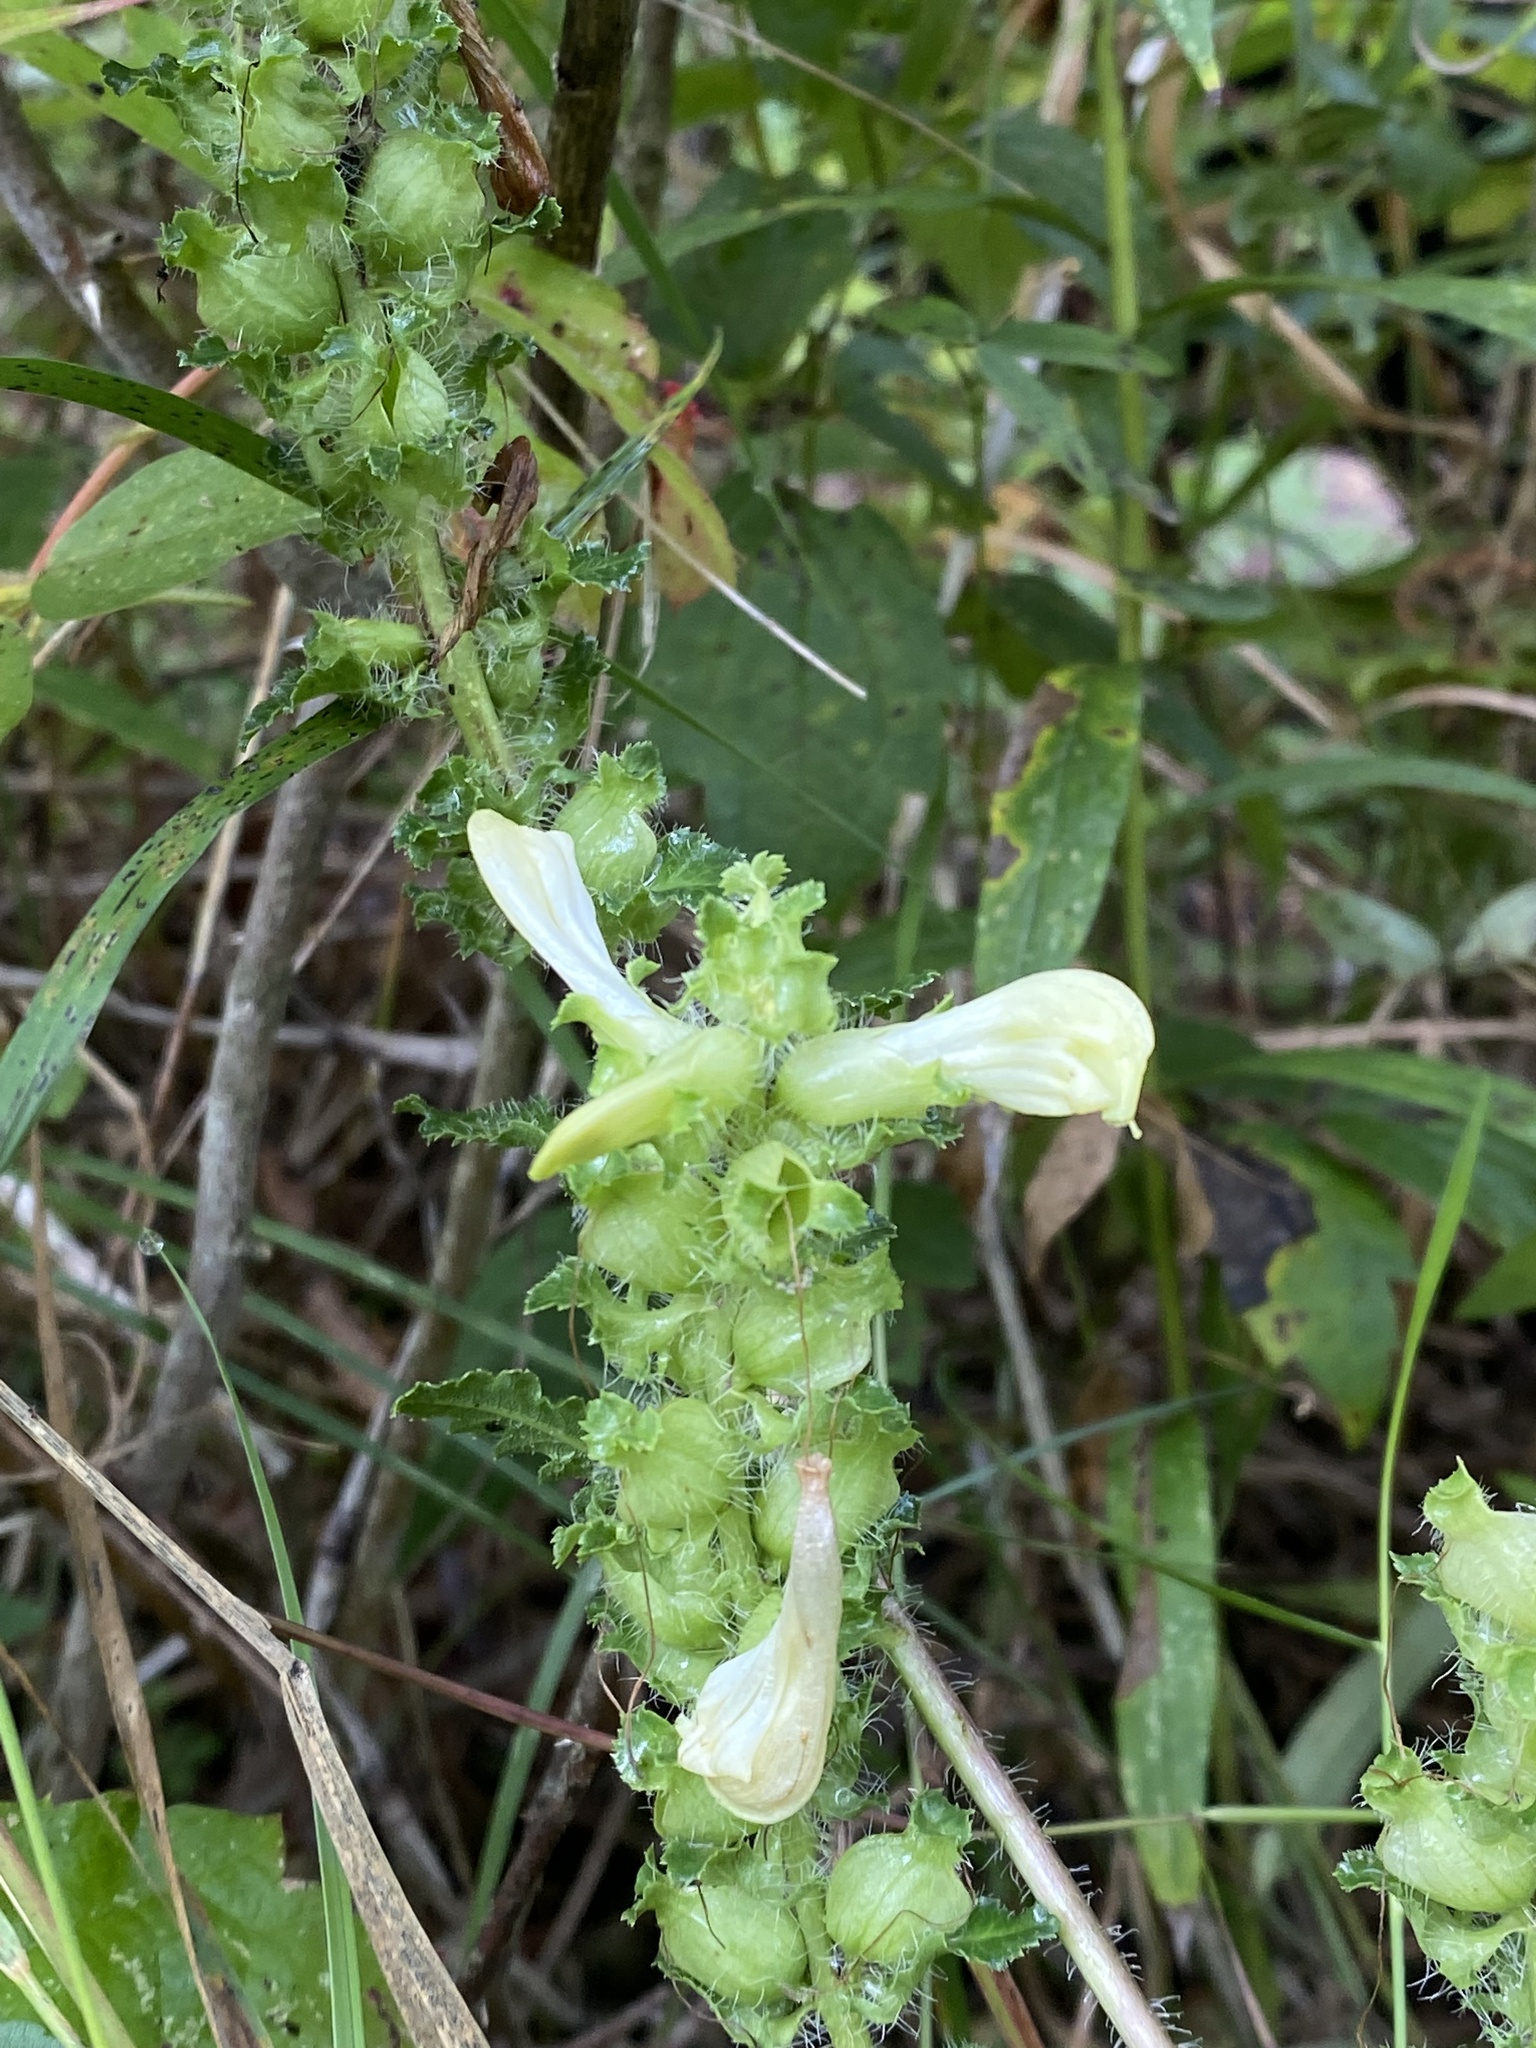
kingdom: Plantae
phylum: Tracheophyta
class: Magnoliopsida
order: Lamiales
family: Orobanchaceae
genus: Pedicularis
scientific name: Pedicularis lanceolata
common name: Swamp lousewort
